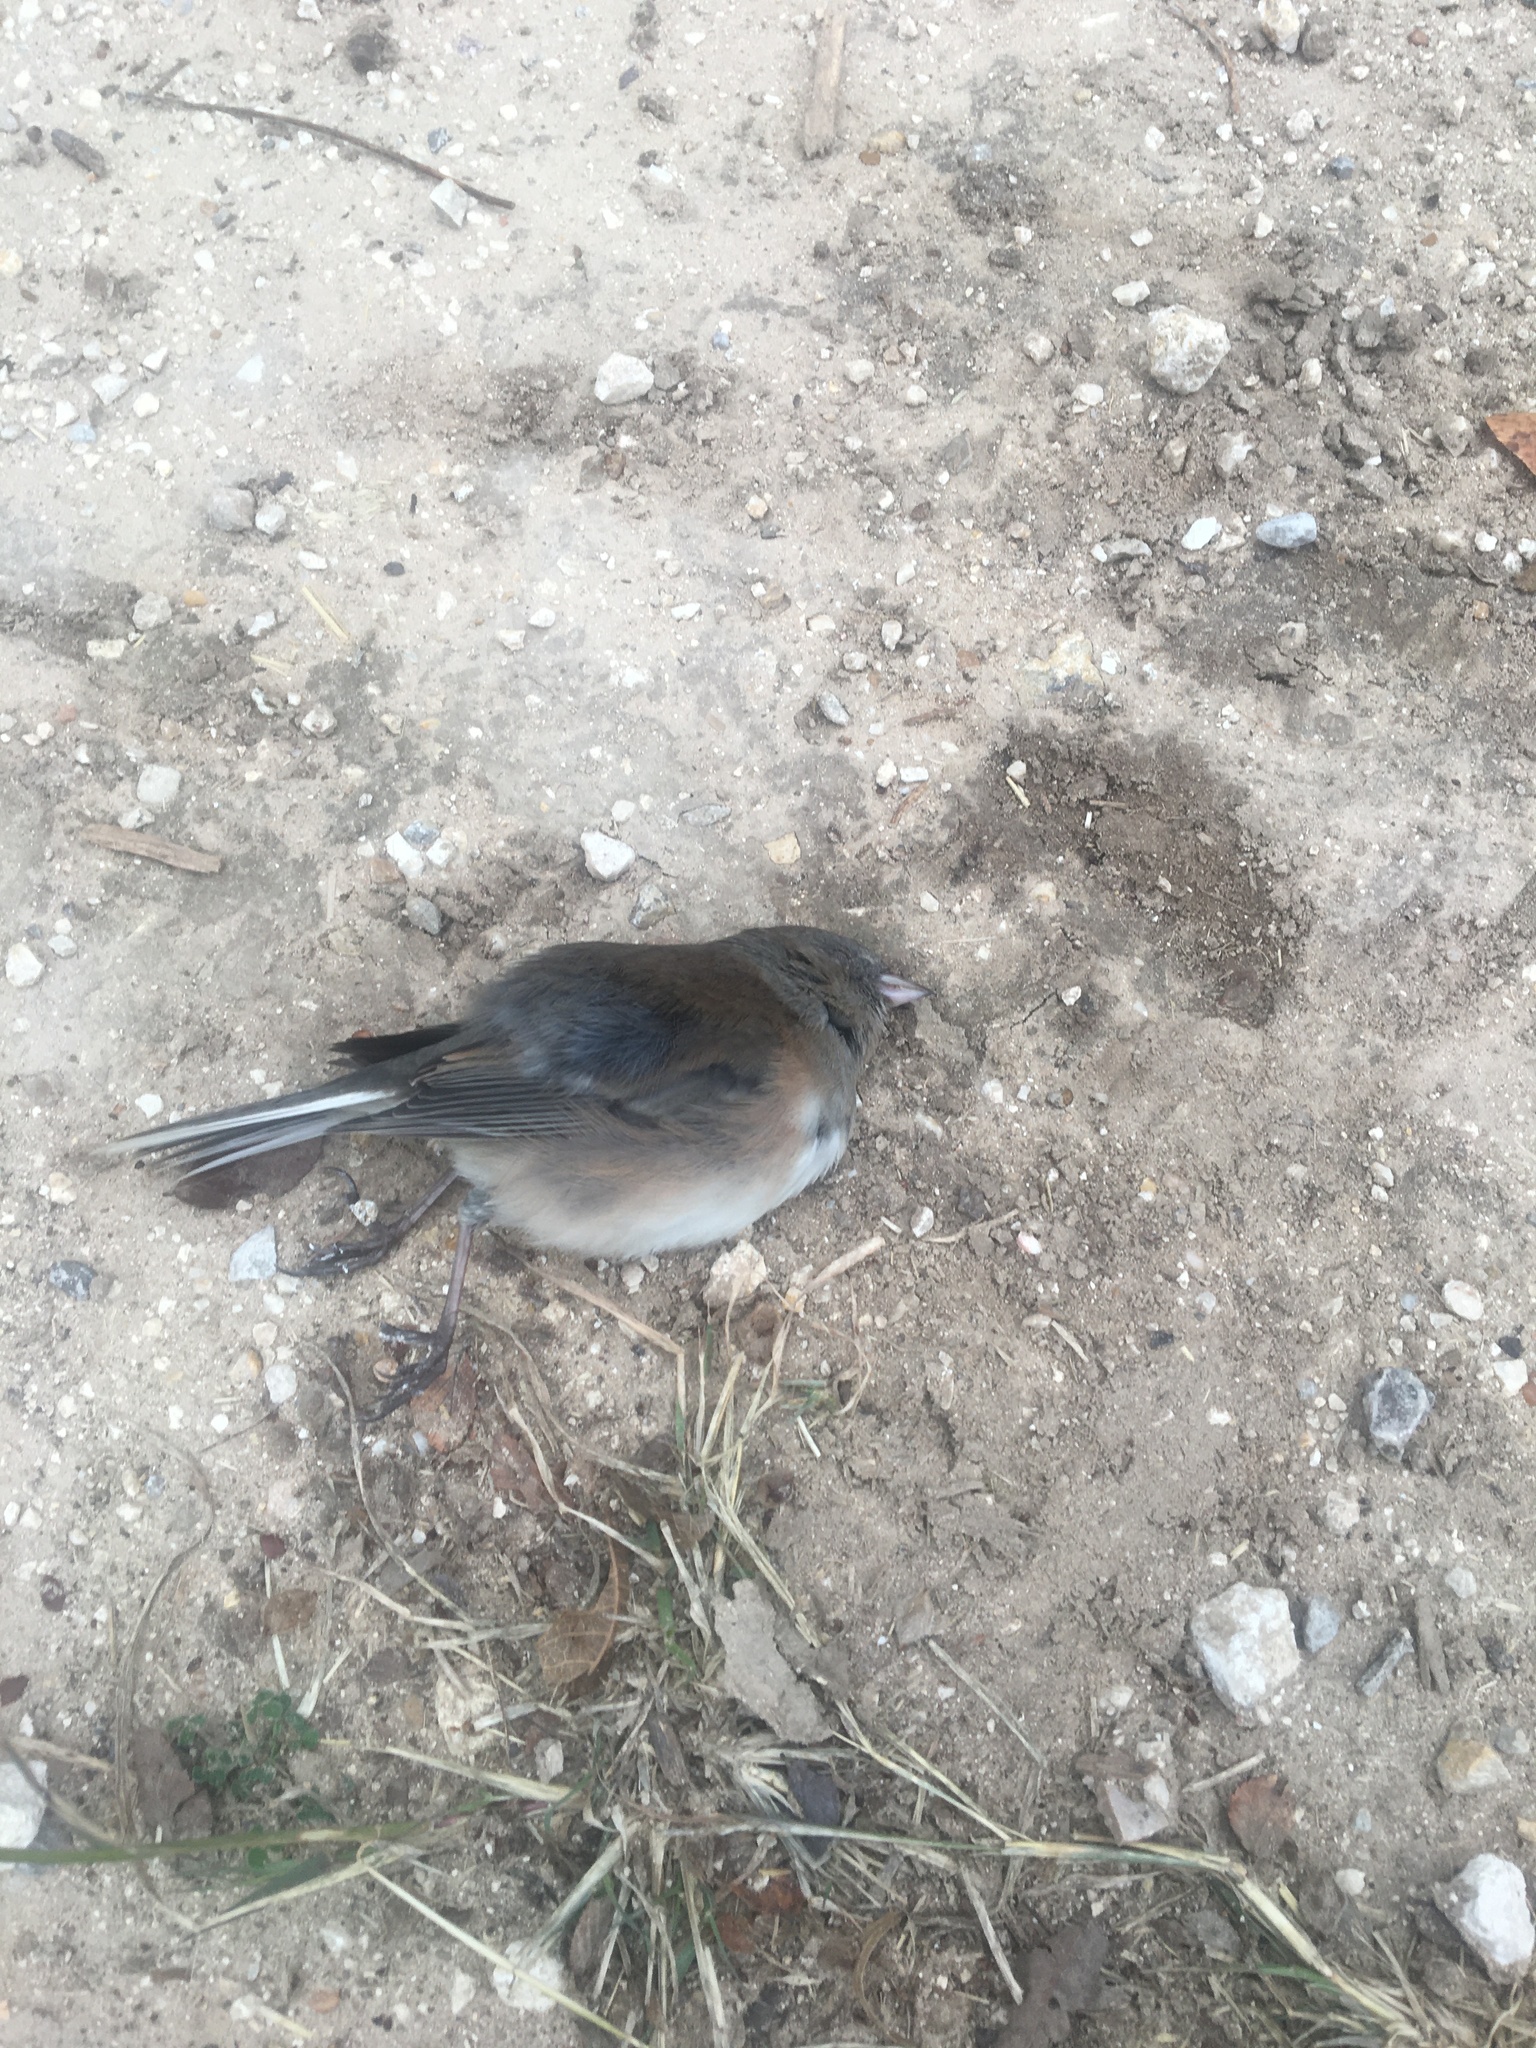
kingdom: Animalia
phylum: Chordata
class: Aves
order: Passeriformes
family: Passerellidae
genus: Junco
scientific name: Junco hyemalis
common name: Dark-eyed junco
